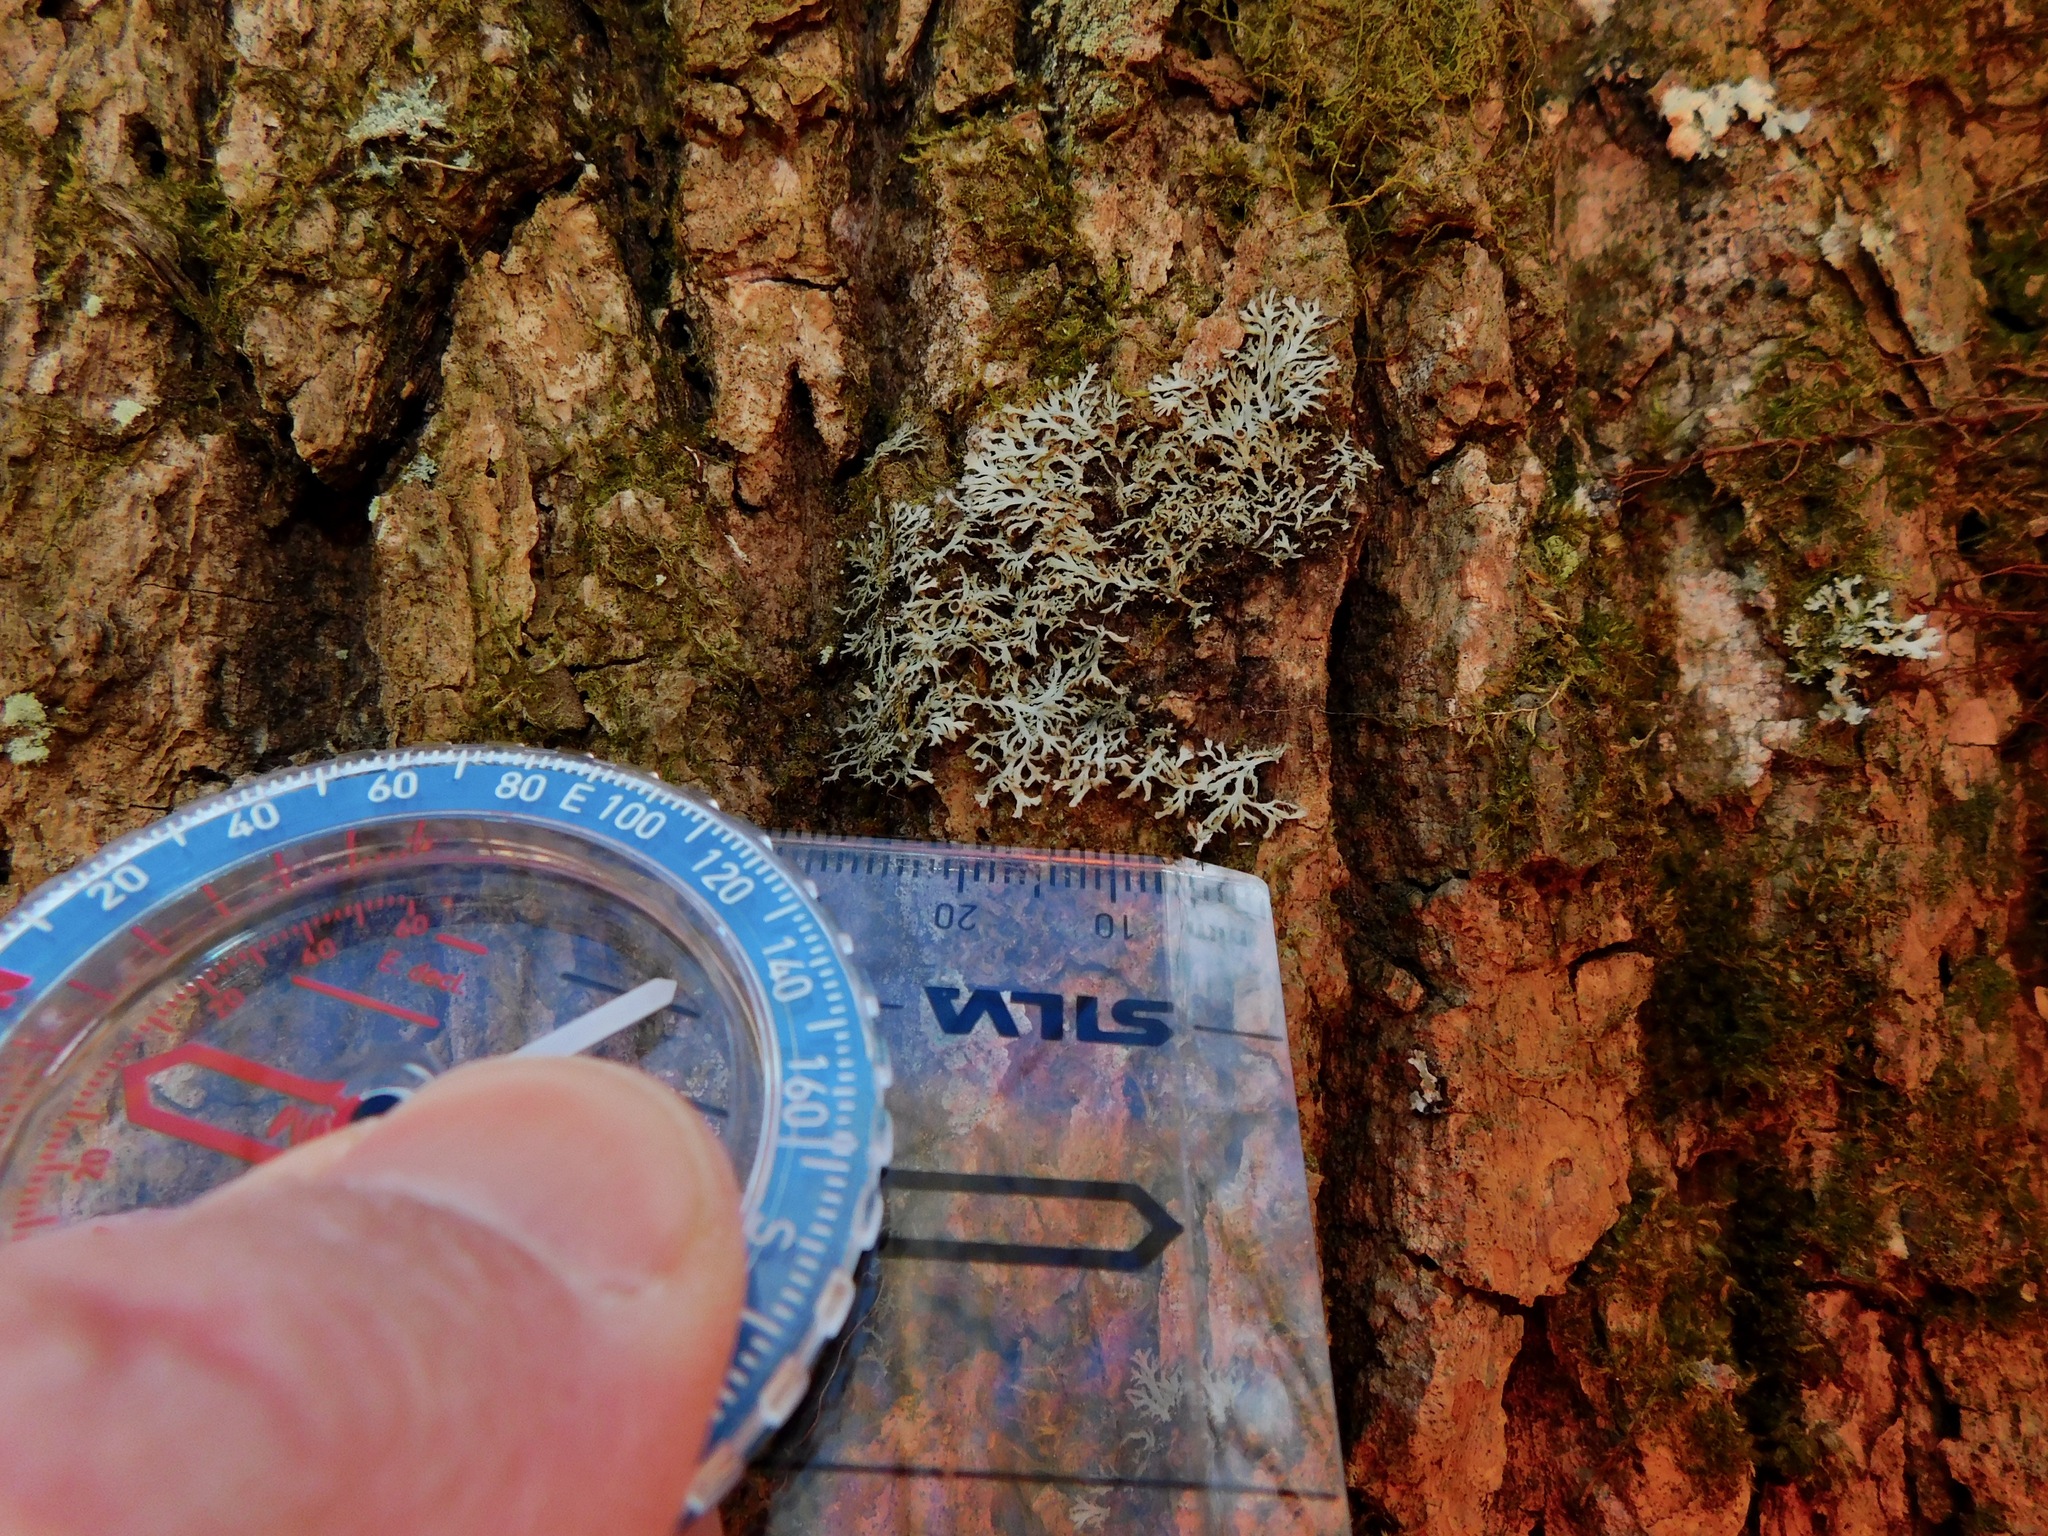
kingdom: Fungi
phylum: Ascomycota
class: Lecanoromycetes
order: Caliciales
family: Physciaceae
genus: Leucodermia
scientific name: Leucodermia appalachensis
